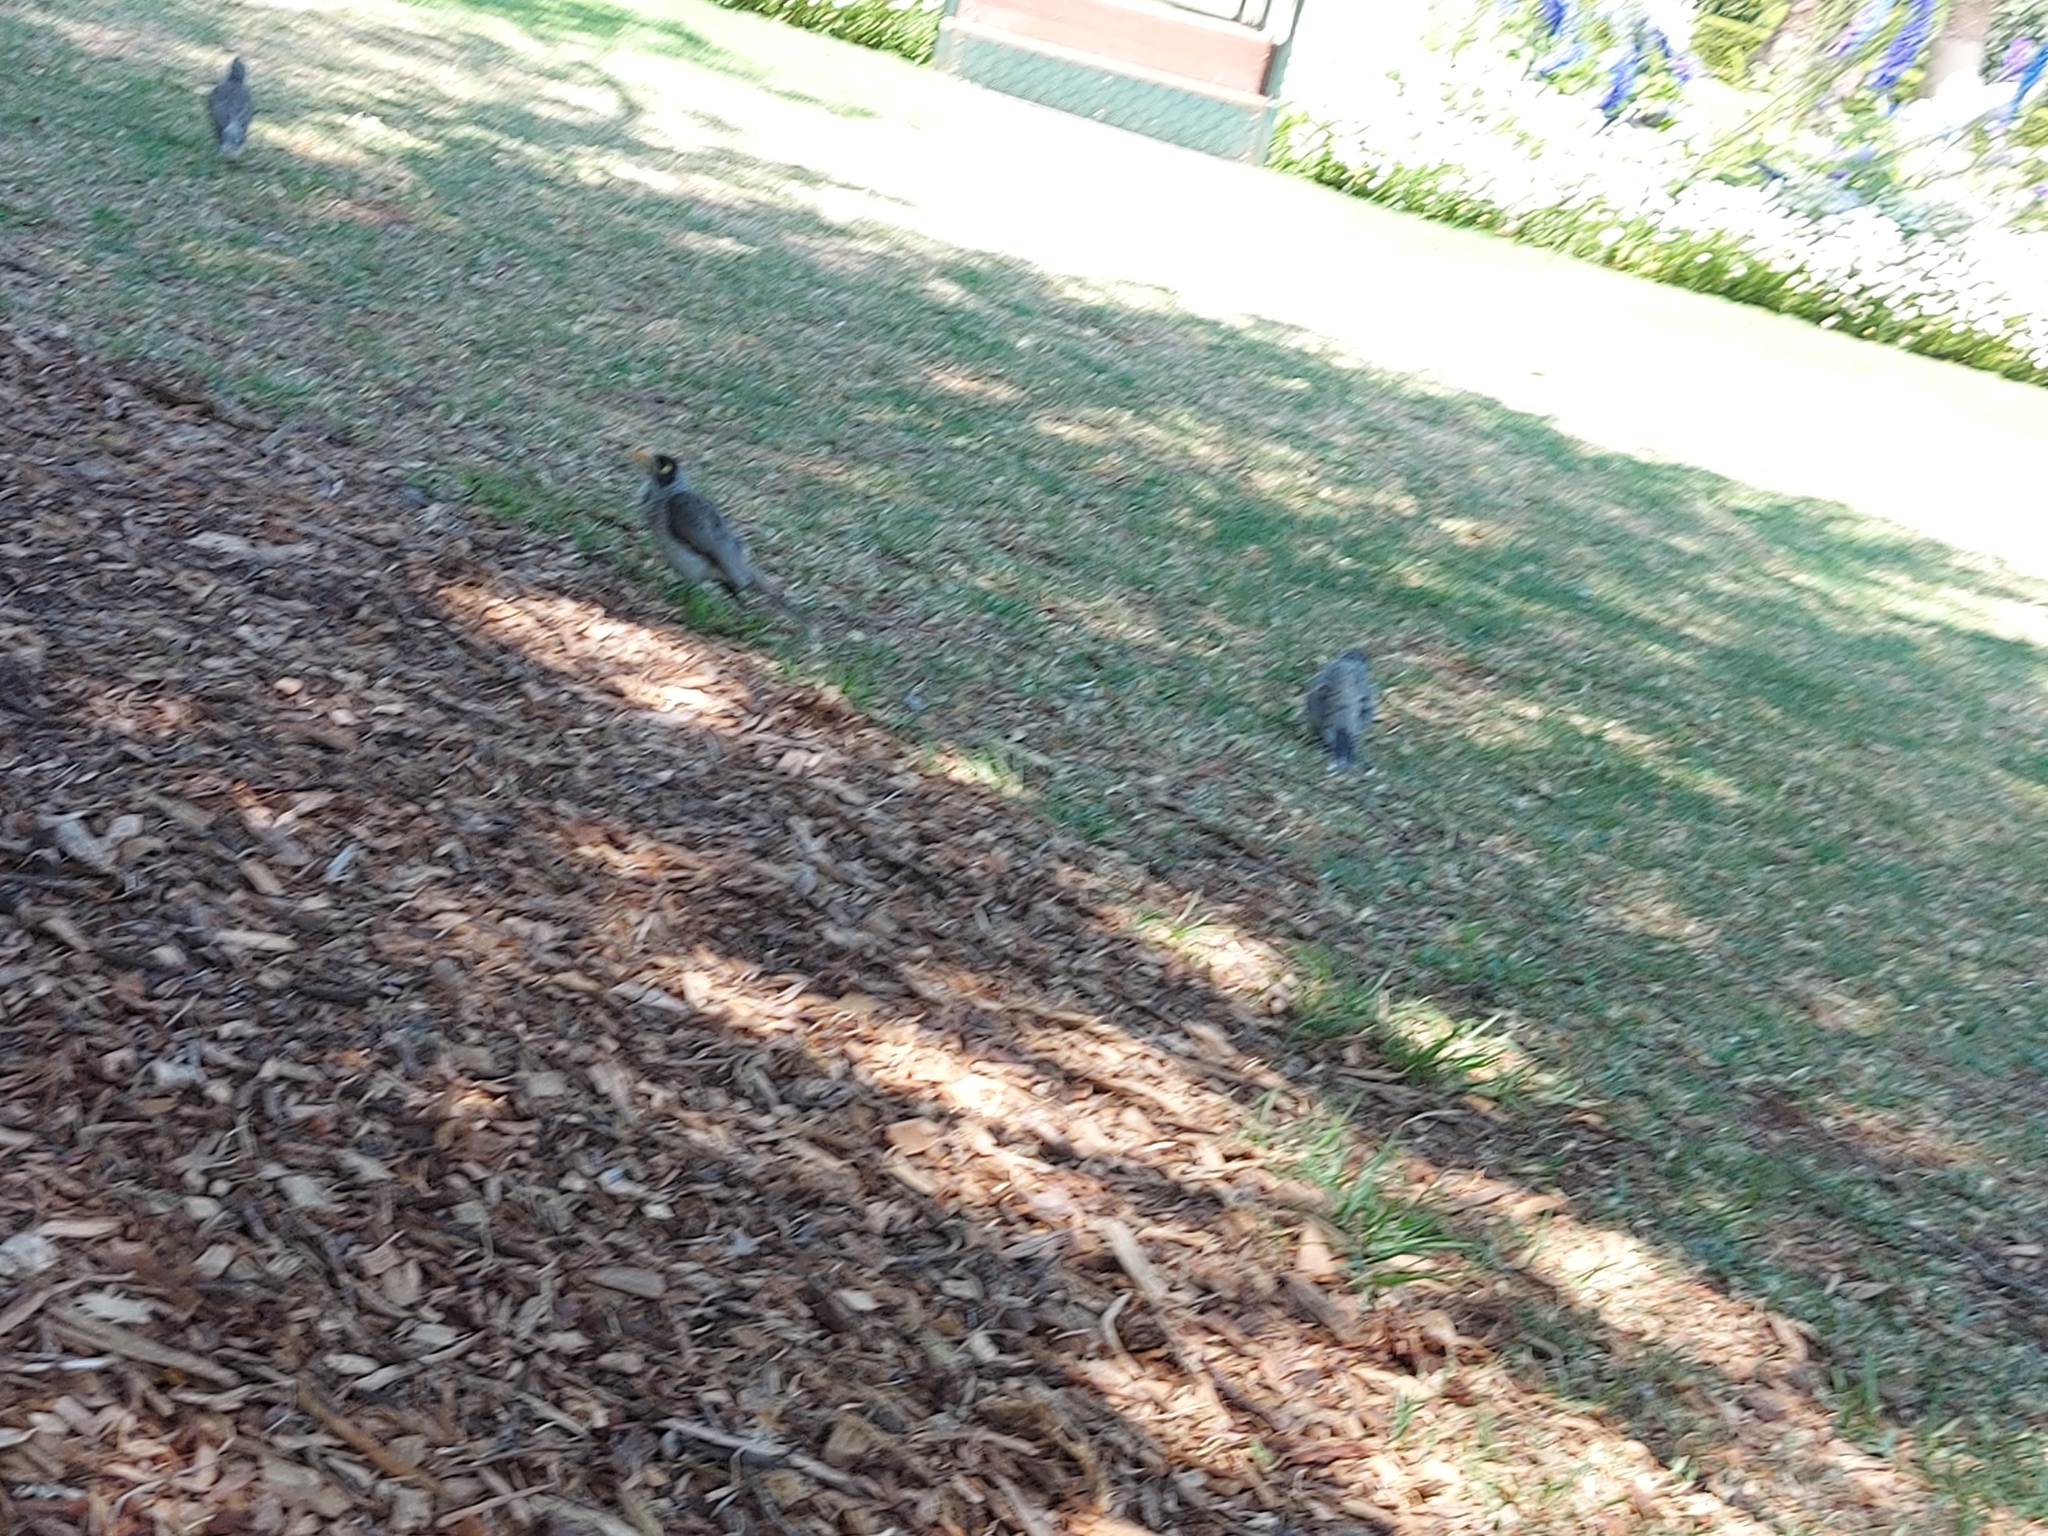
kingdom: Animalia
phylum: Chordata
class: Aves
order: Passeriformes
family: Meliphagidae
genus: Manorina
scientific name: Manorina melanocephala
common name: Noisy miner
